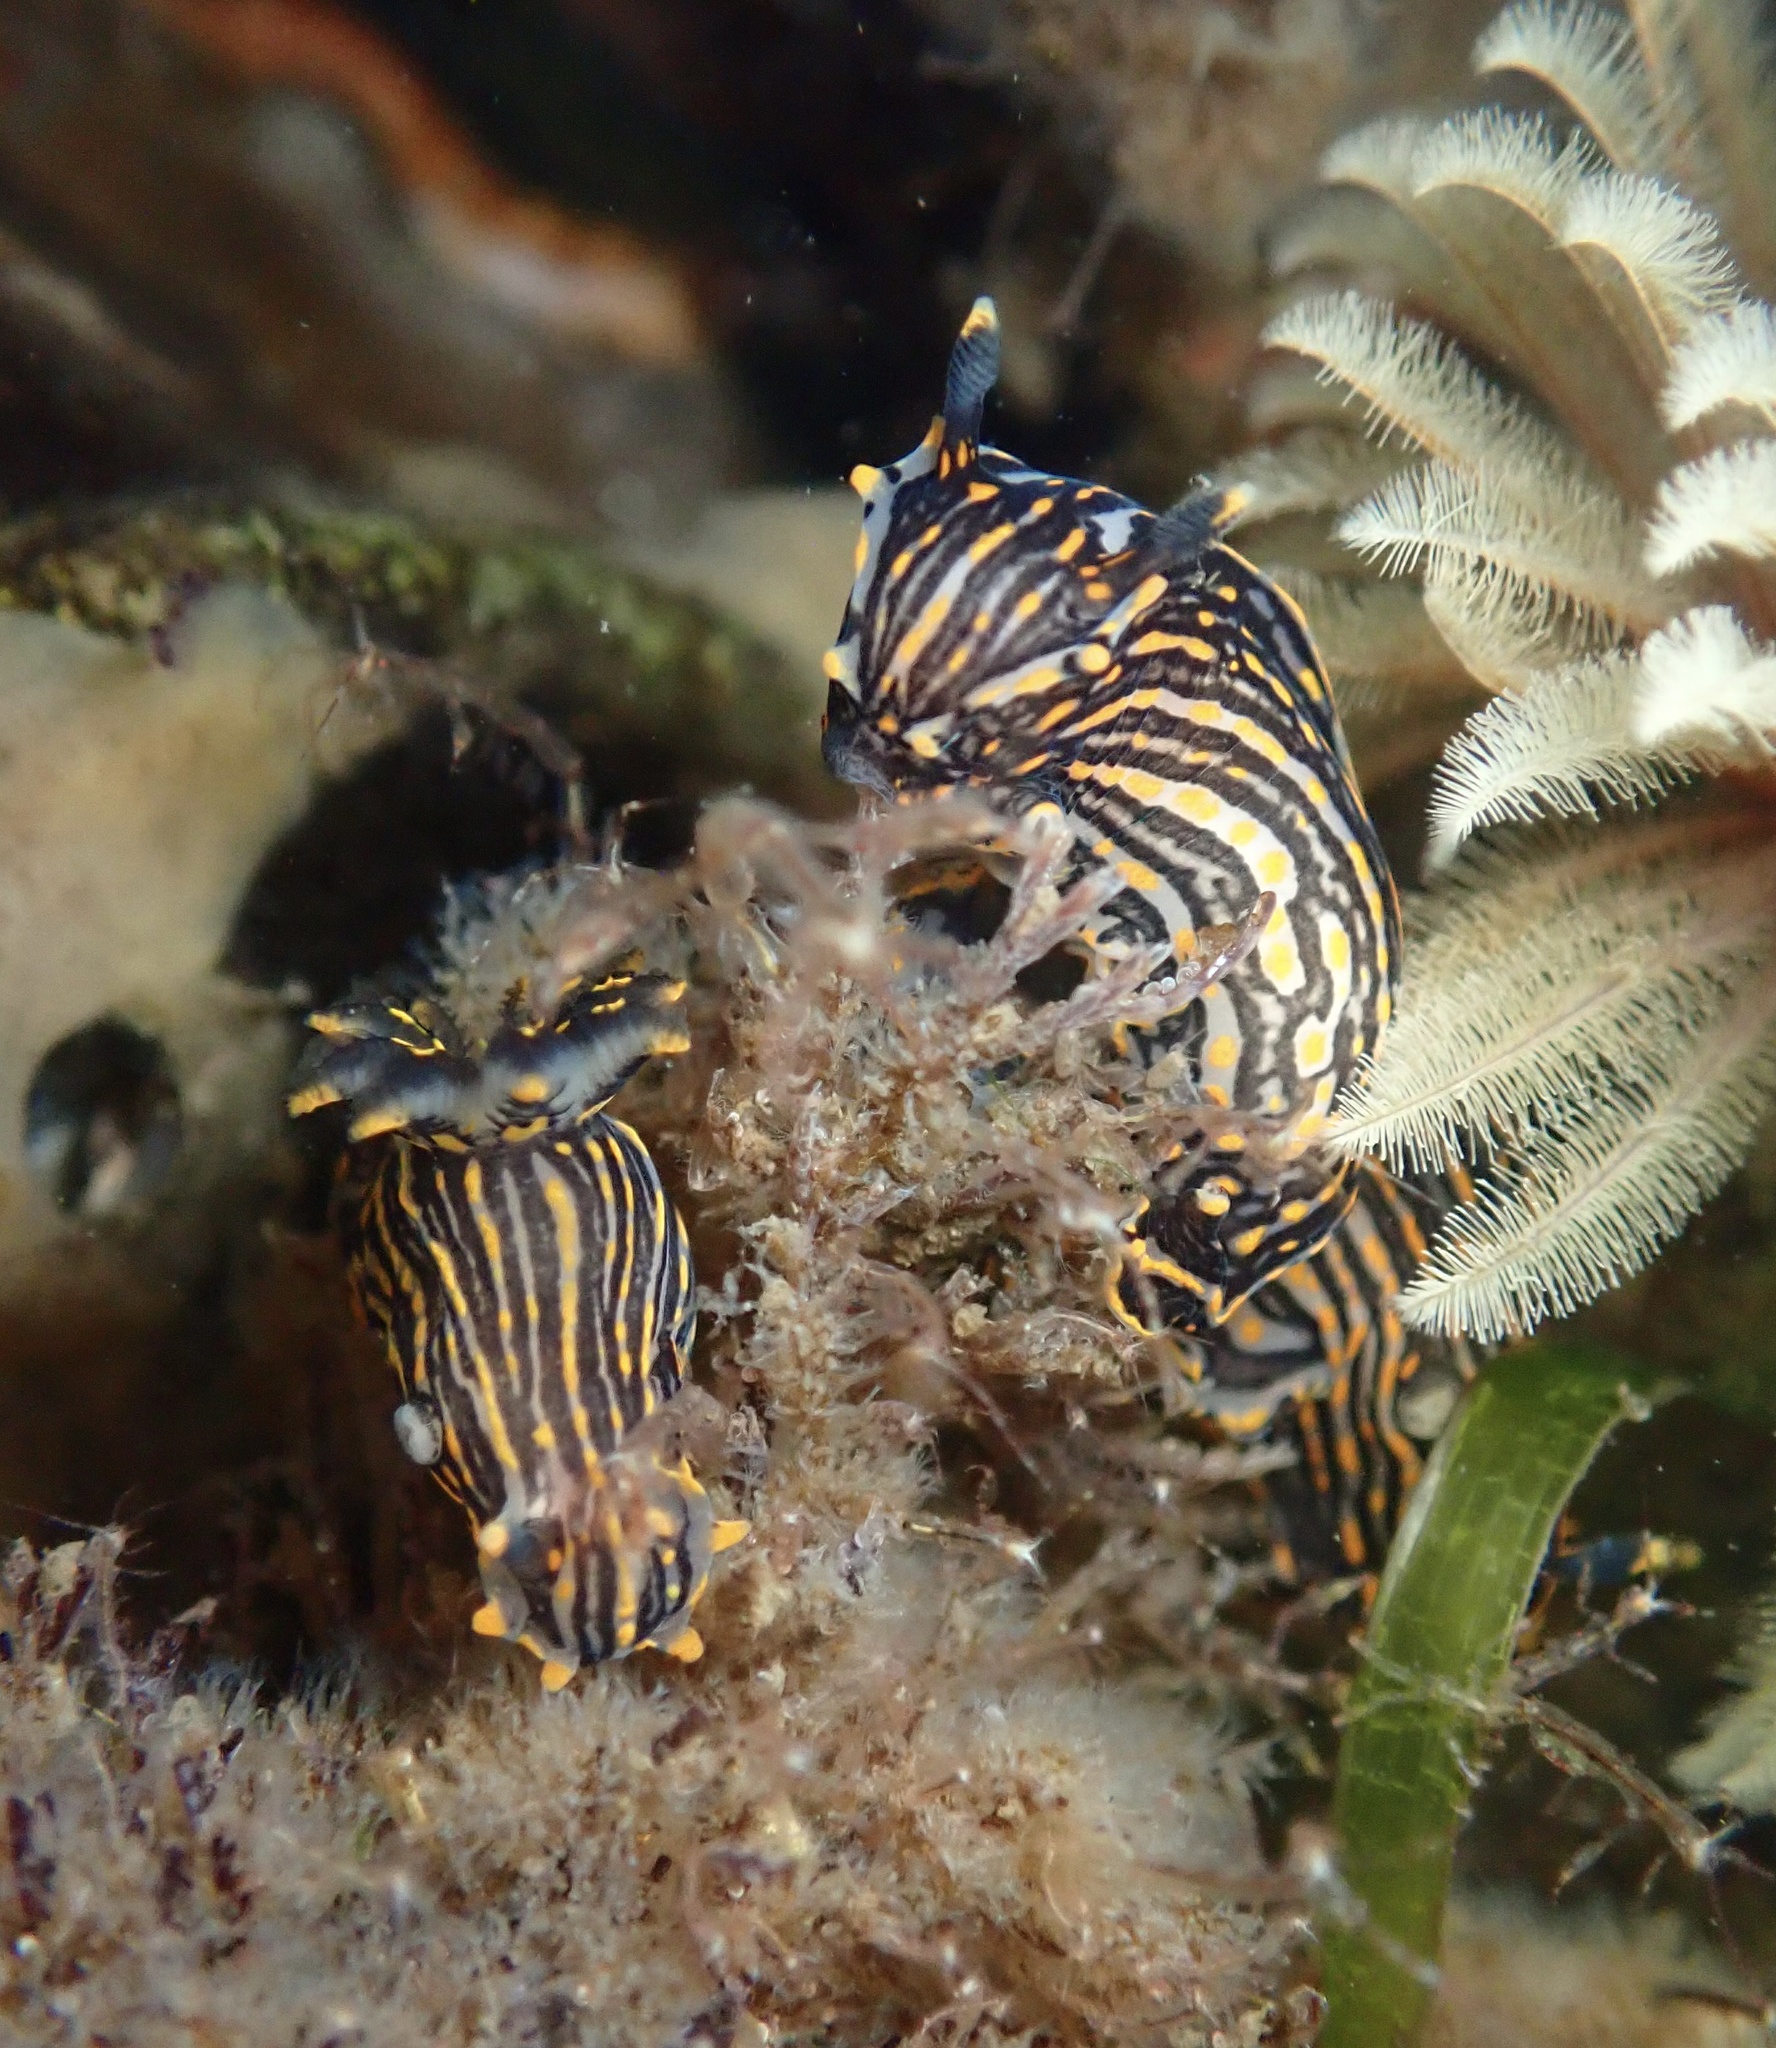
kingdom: Animalia
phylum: Mollusca
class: Gastropoda
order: Nudibranchia
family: Polyceridae
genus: Polycera
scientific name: Polycera atra
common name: Orange-spike polycera
